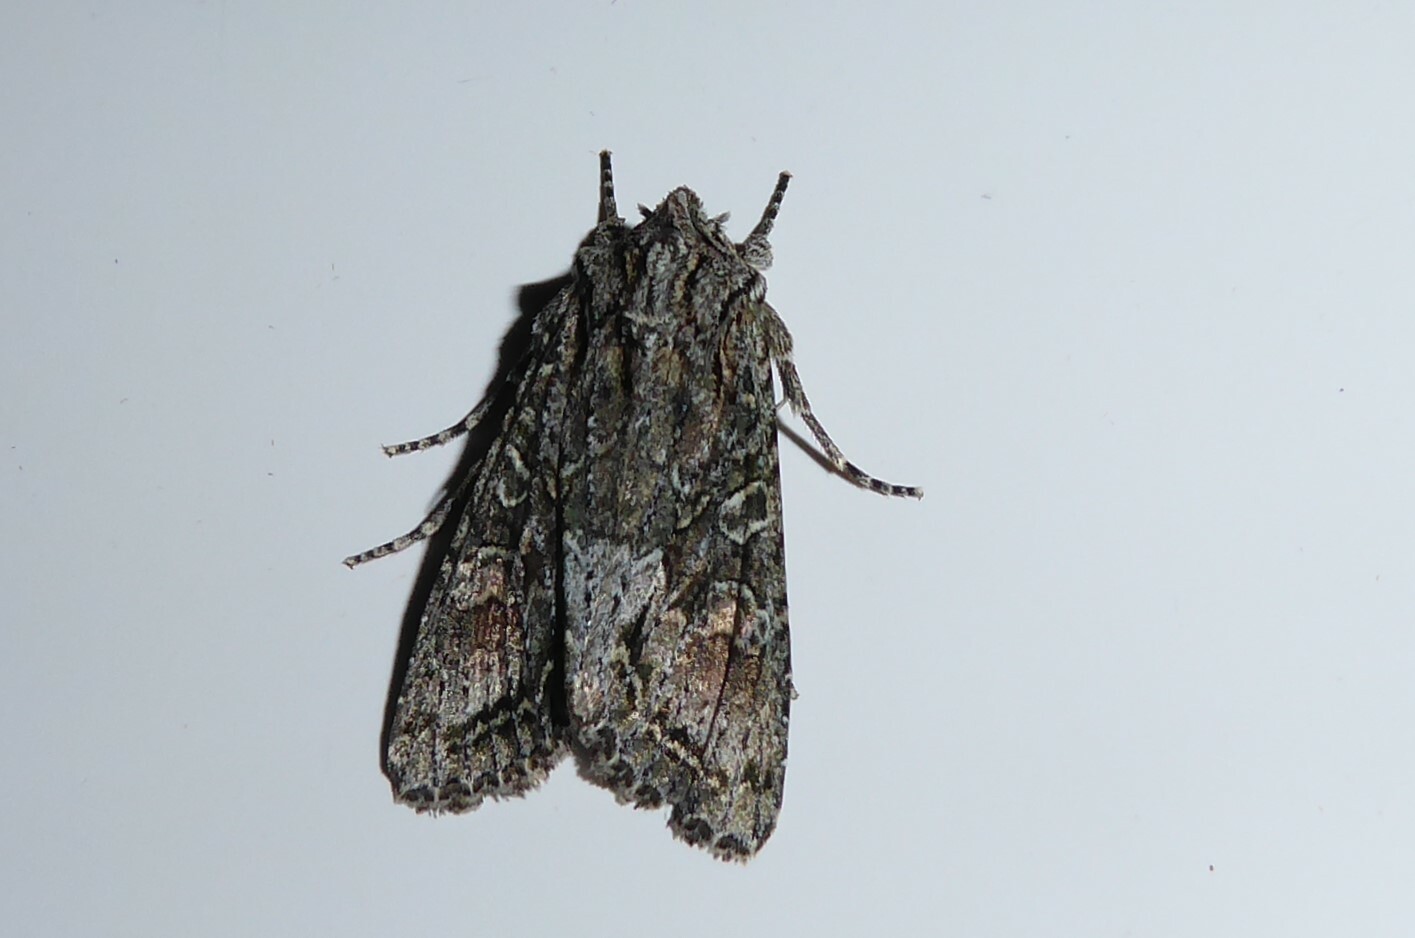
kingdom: Animalia
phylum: Arthropoda
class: Insecta
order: Lepidoptera
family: Noctuidae
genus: Ichneutica
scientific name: Ichneutica mutans
